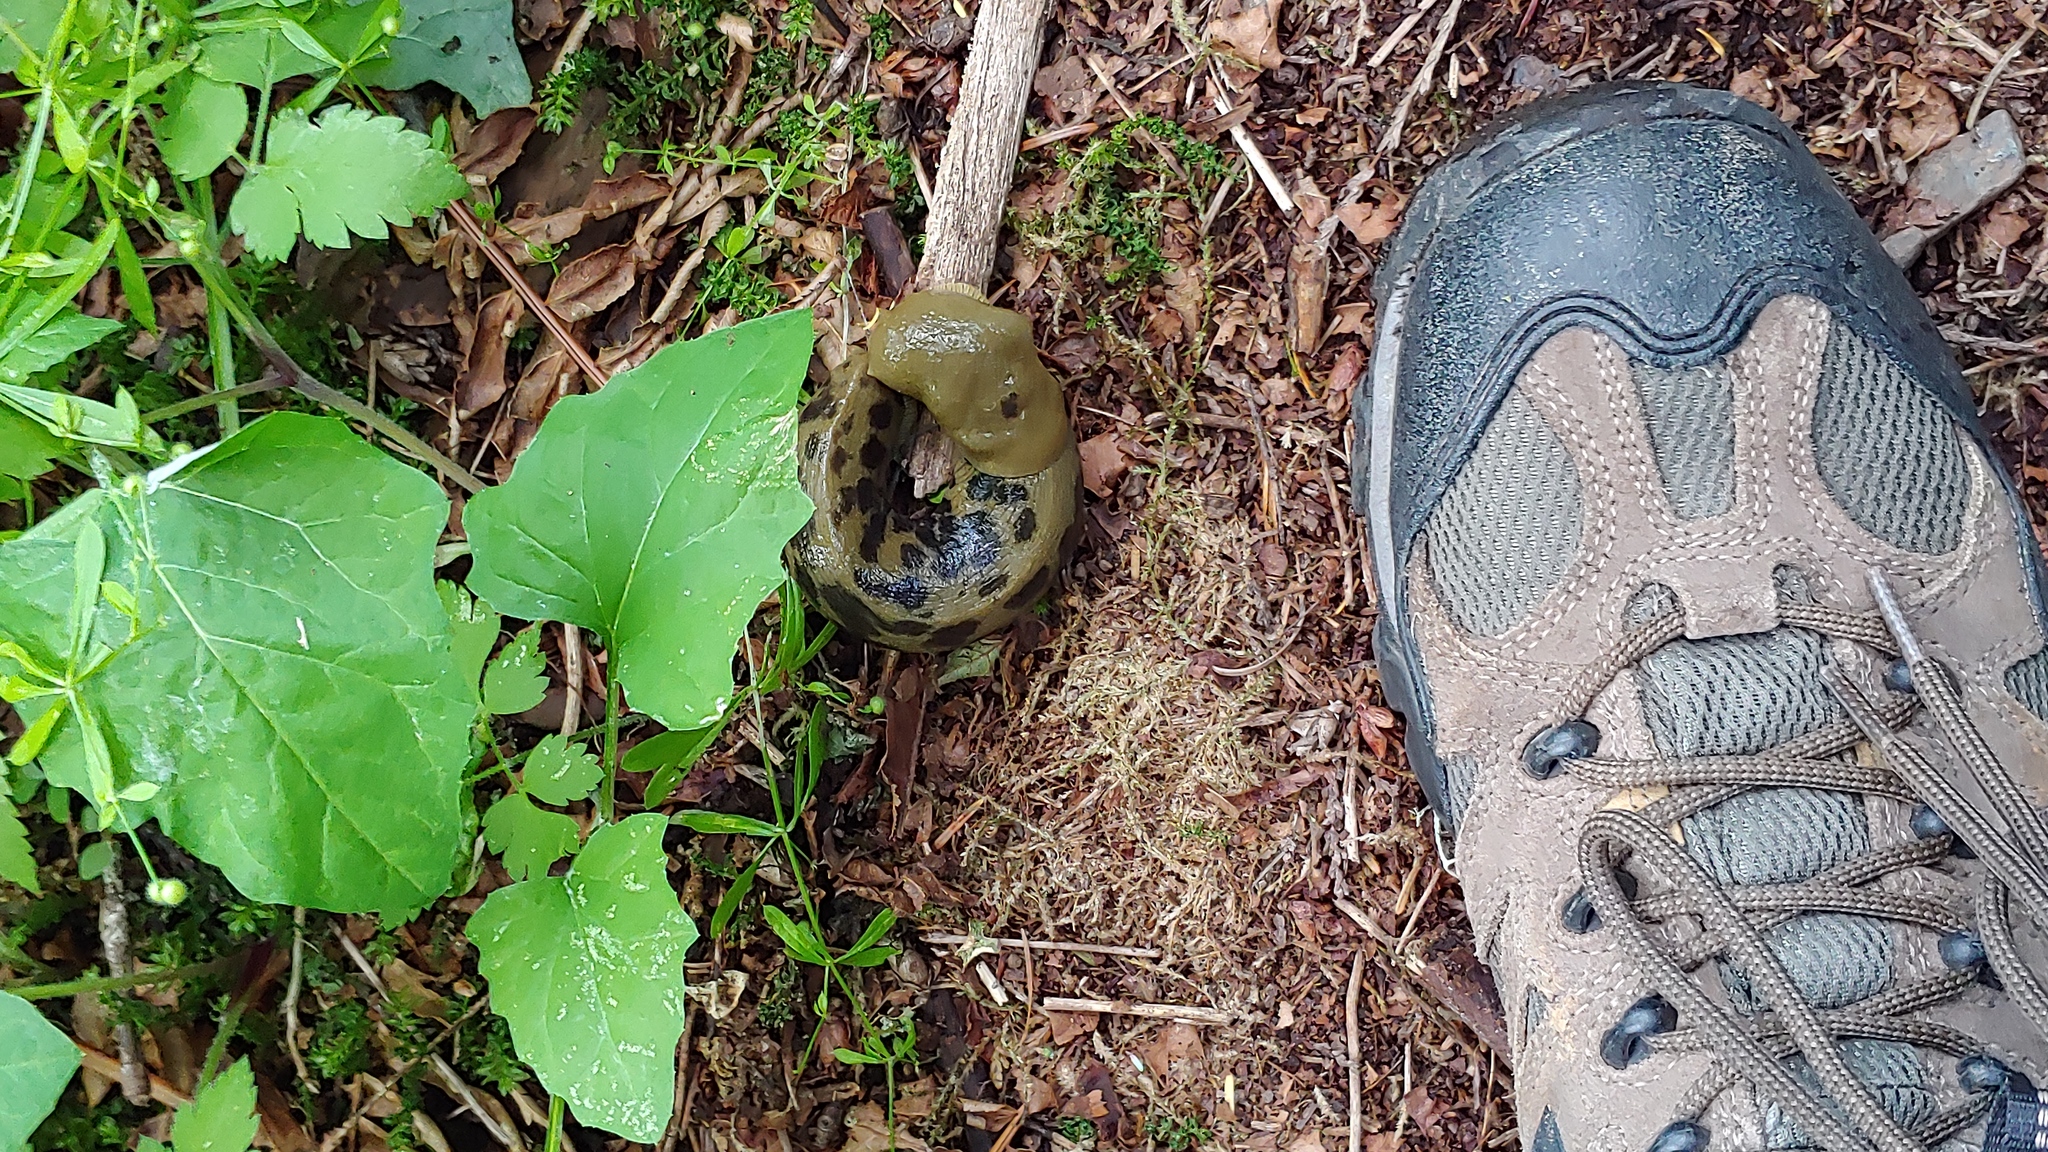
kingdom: Animalia
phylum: Mollusca
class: Gastropoda
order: Stylommatophora
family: Ariolimacidae
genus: Ariolimax
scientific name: Ariolimax columbianus
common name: Pacific banana slug
